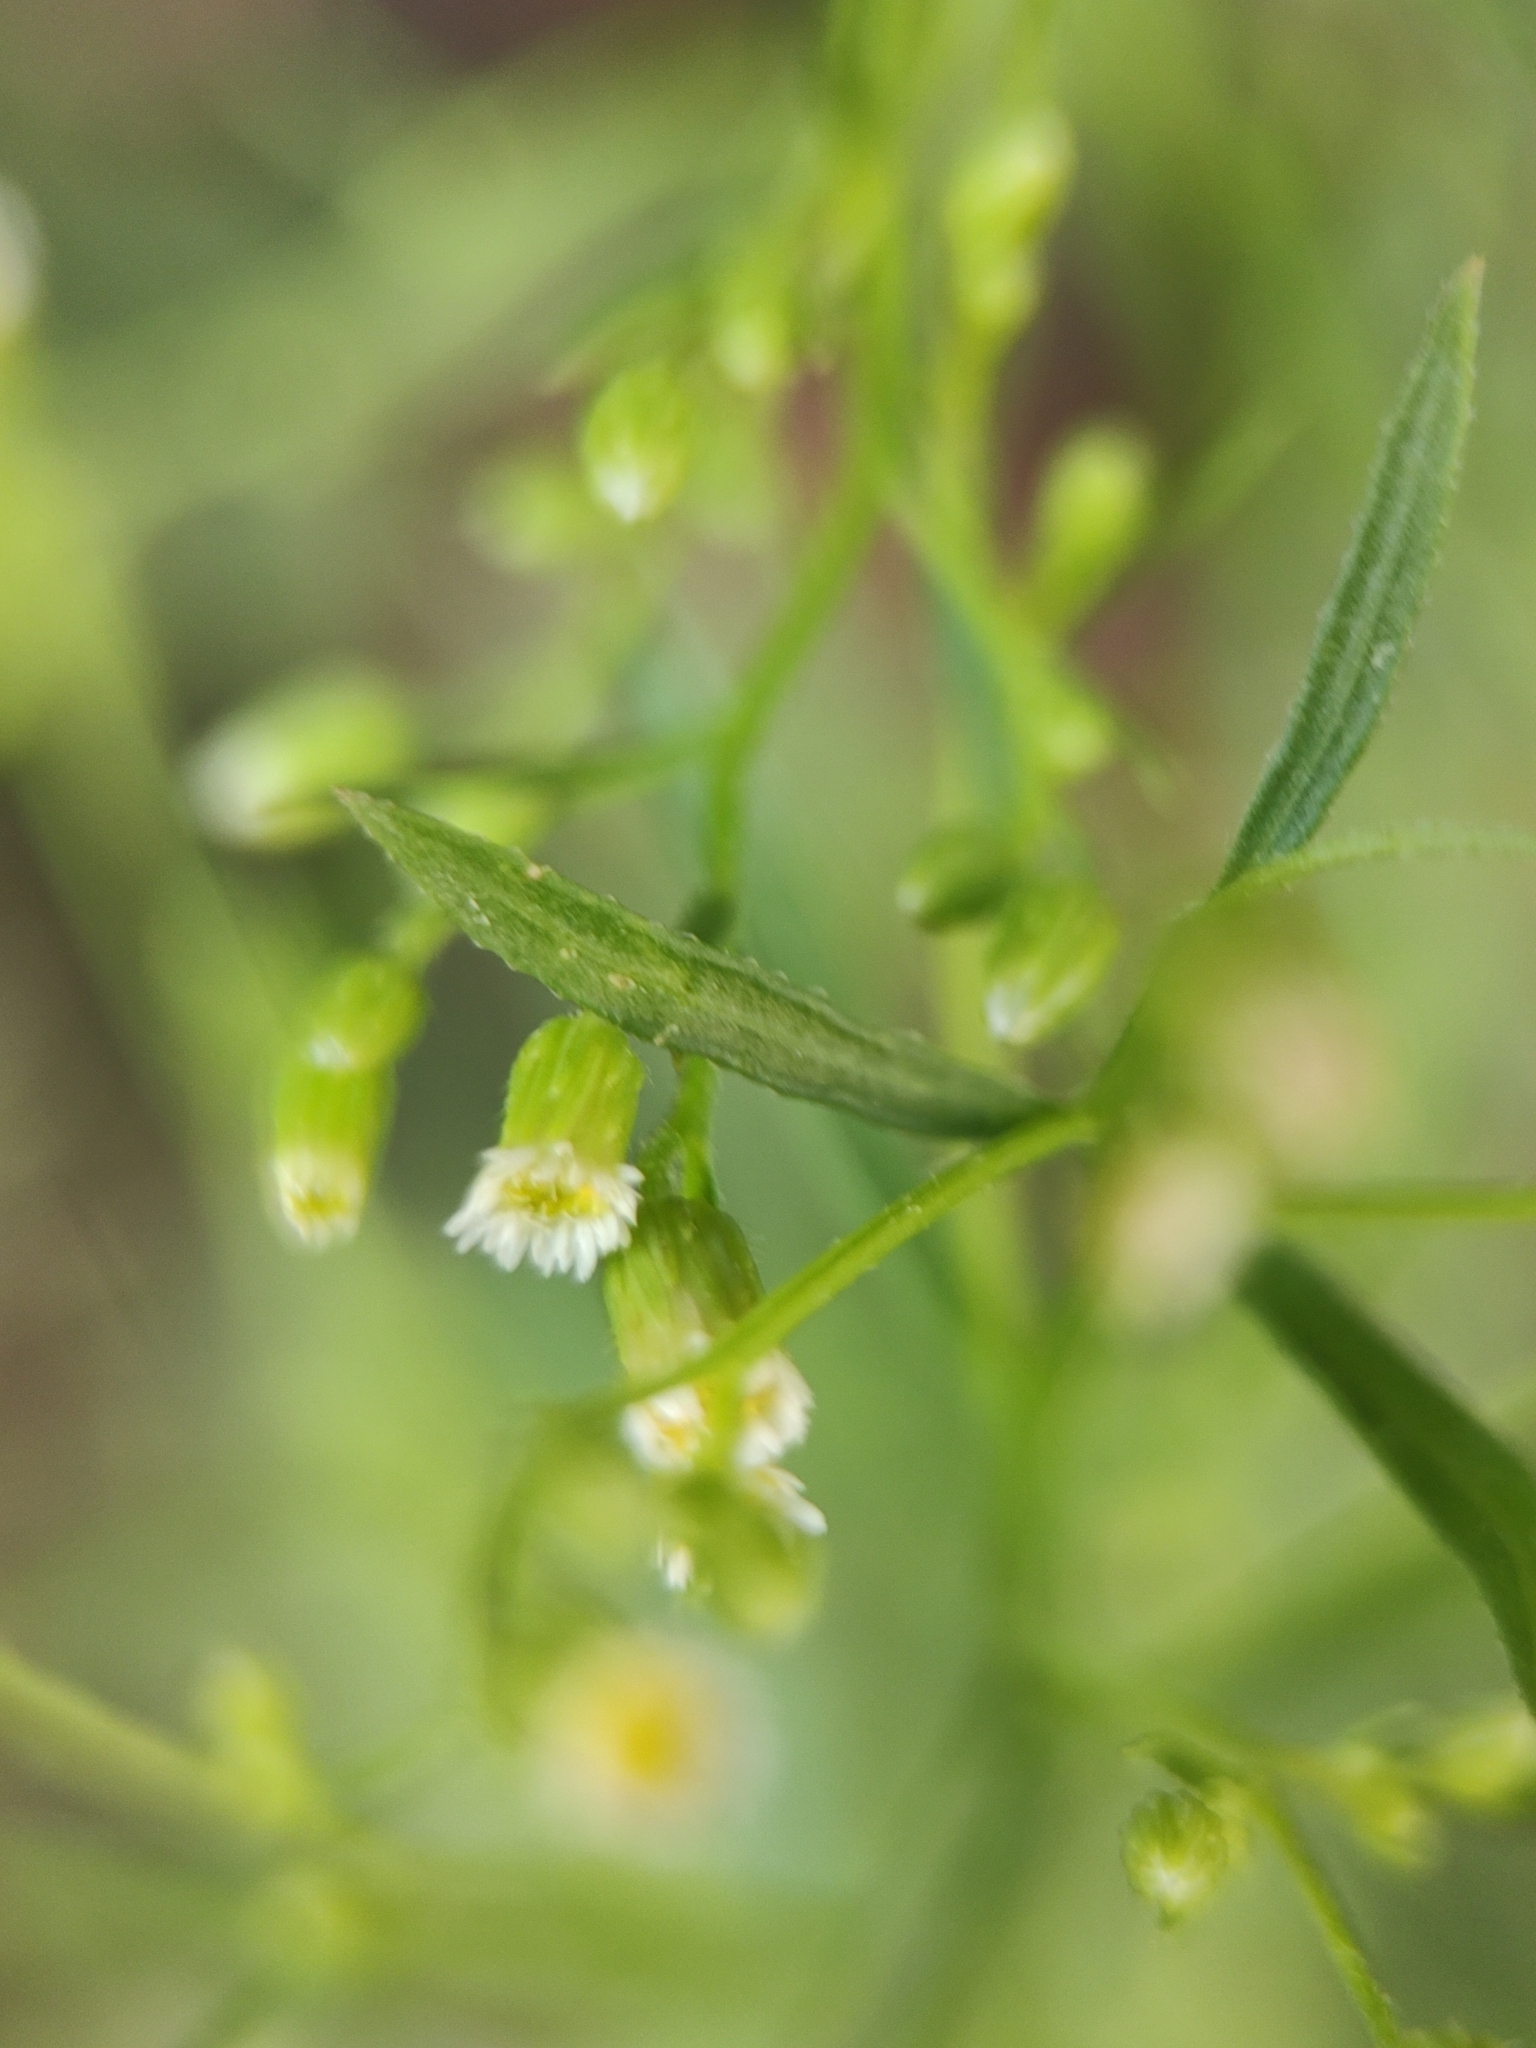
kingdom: Plantae
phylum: Tracheophyta
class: Magnoliopsida
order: Asterales
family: Asteraceae
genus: Erigeron
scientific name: Erigeron canadensis
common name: Canadian fleabane
